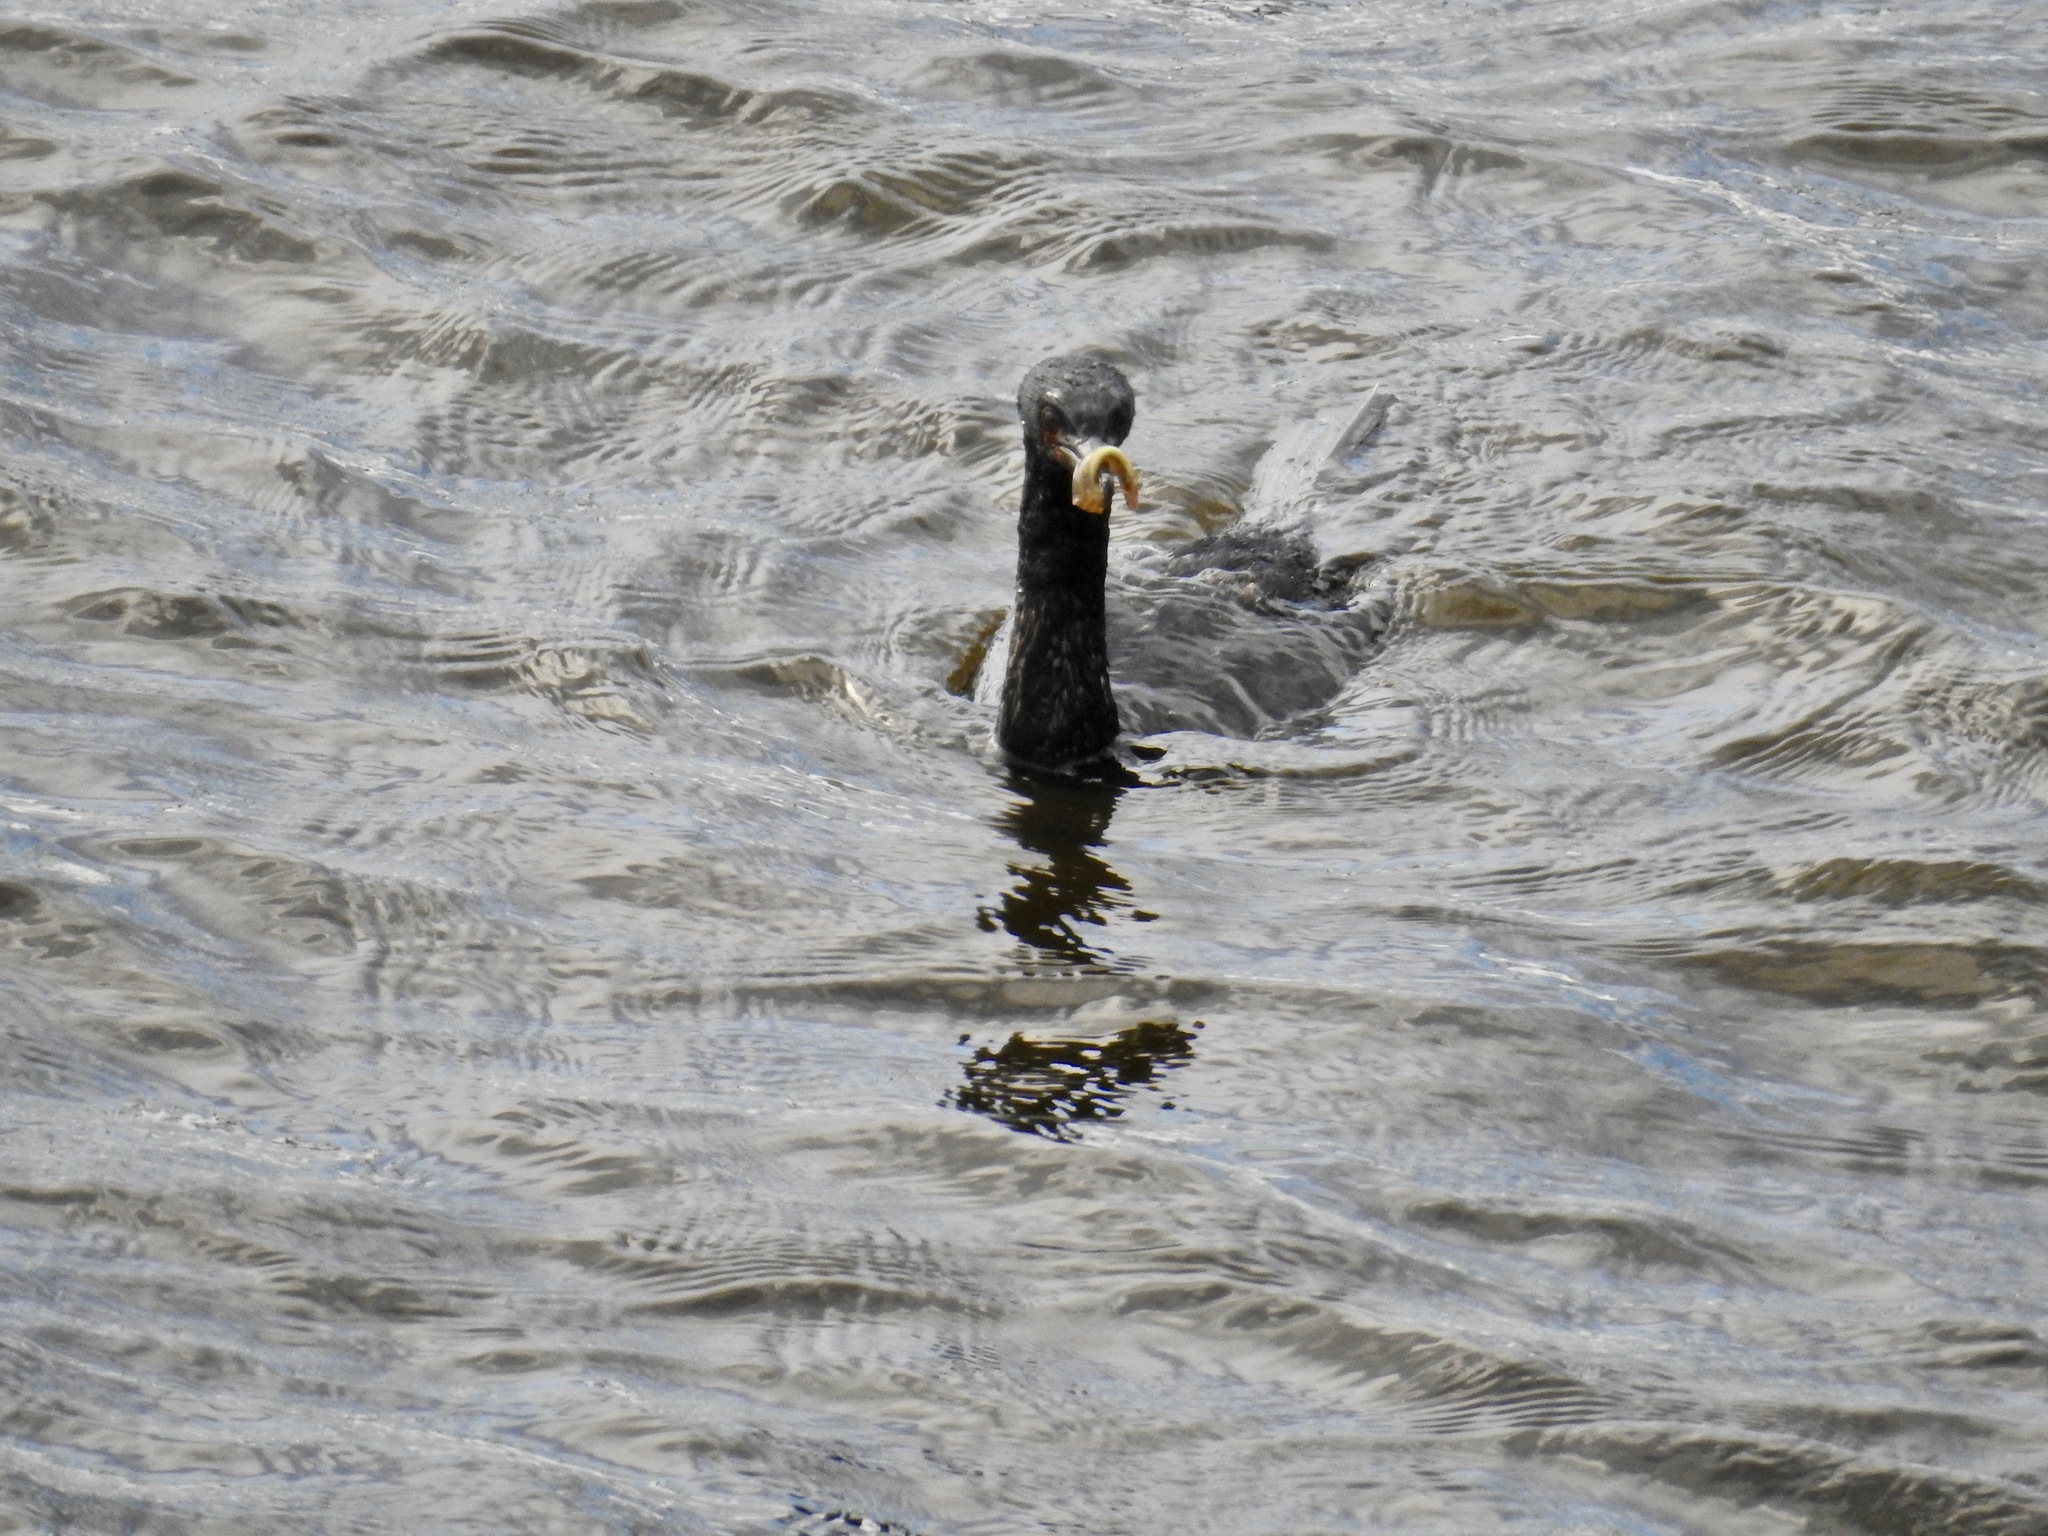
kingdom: Animalia
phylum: Chordata
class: Aves
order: Suliformes
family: Phalacrocoracidae
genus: Phalacrocorax
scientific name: Phalacrocorax pelagicus
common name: Pelagic cormorant
